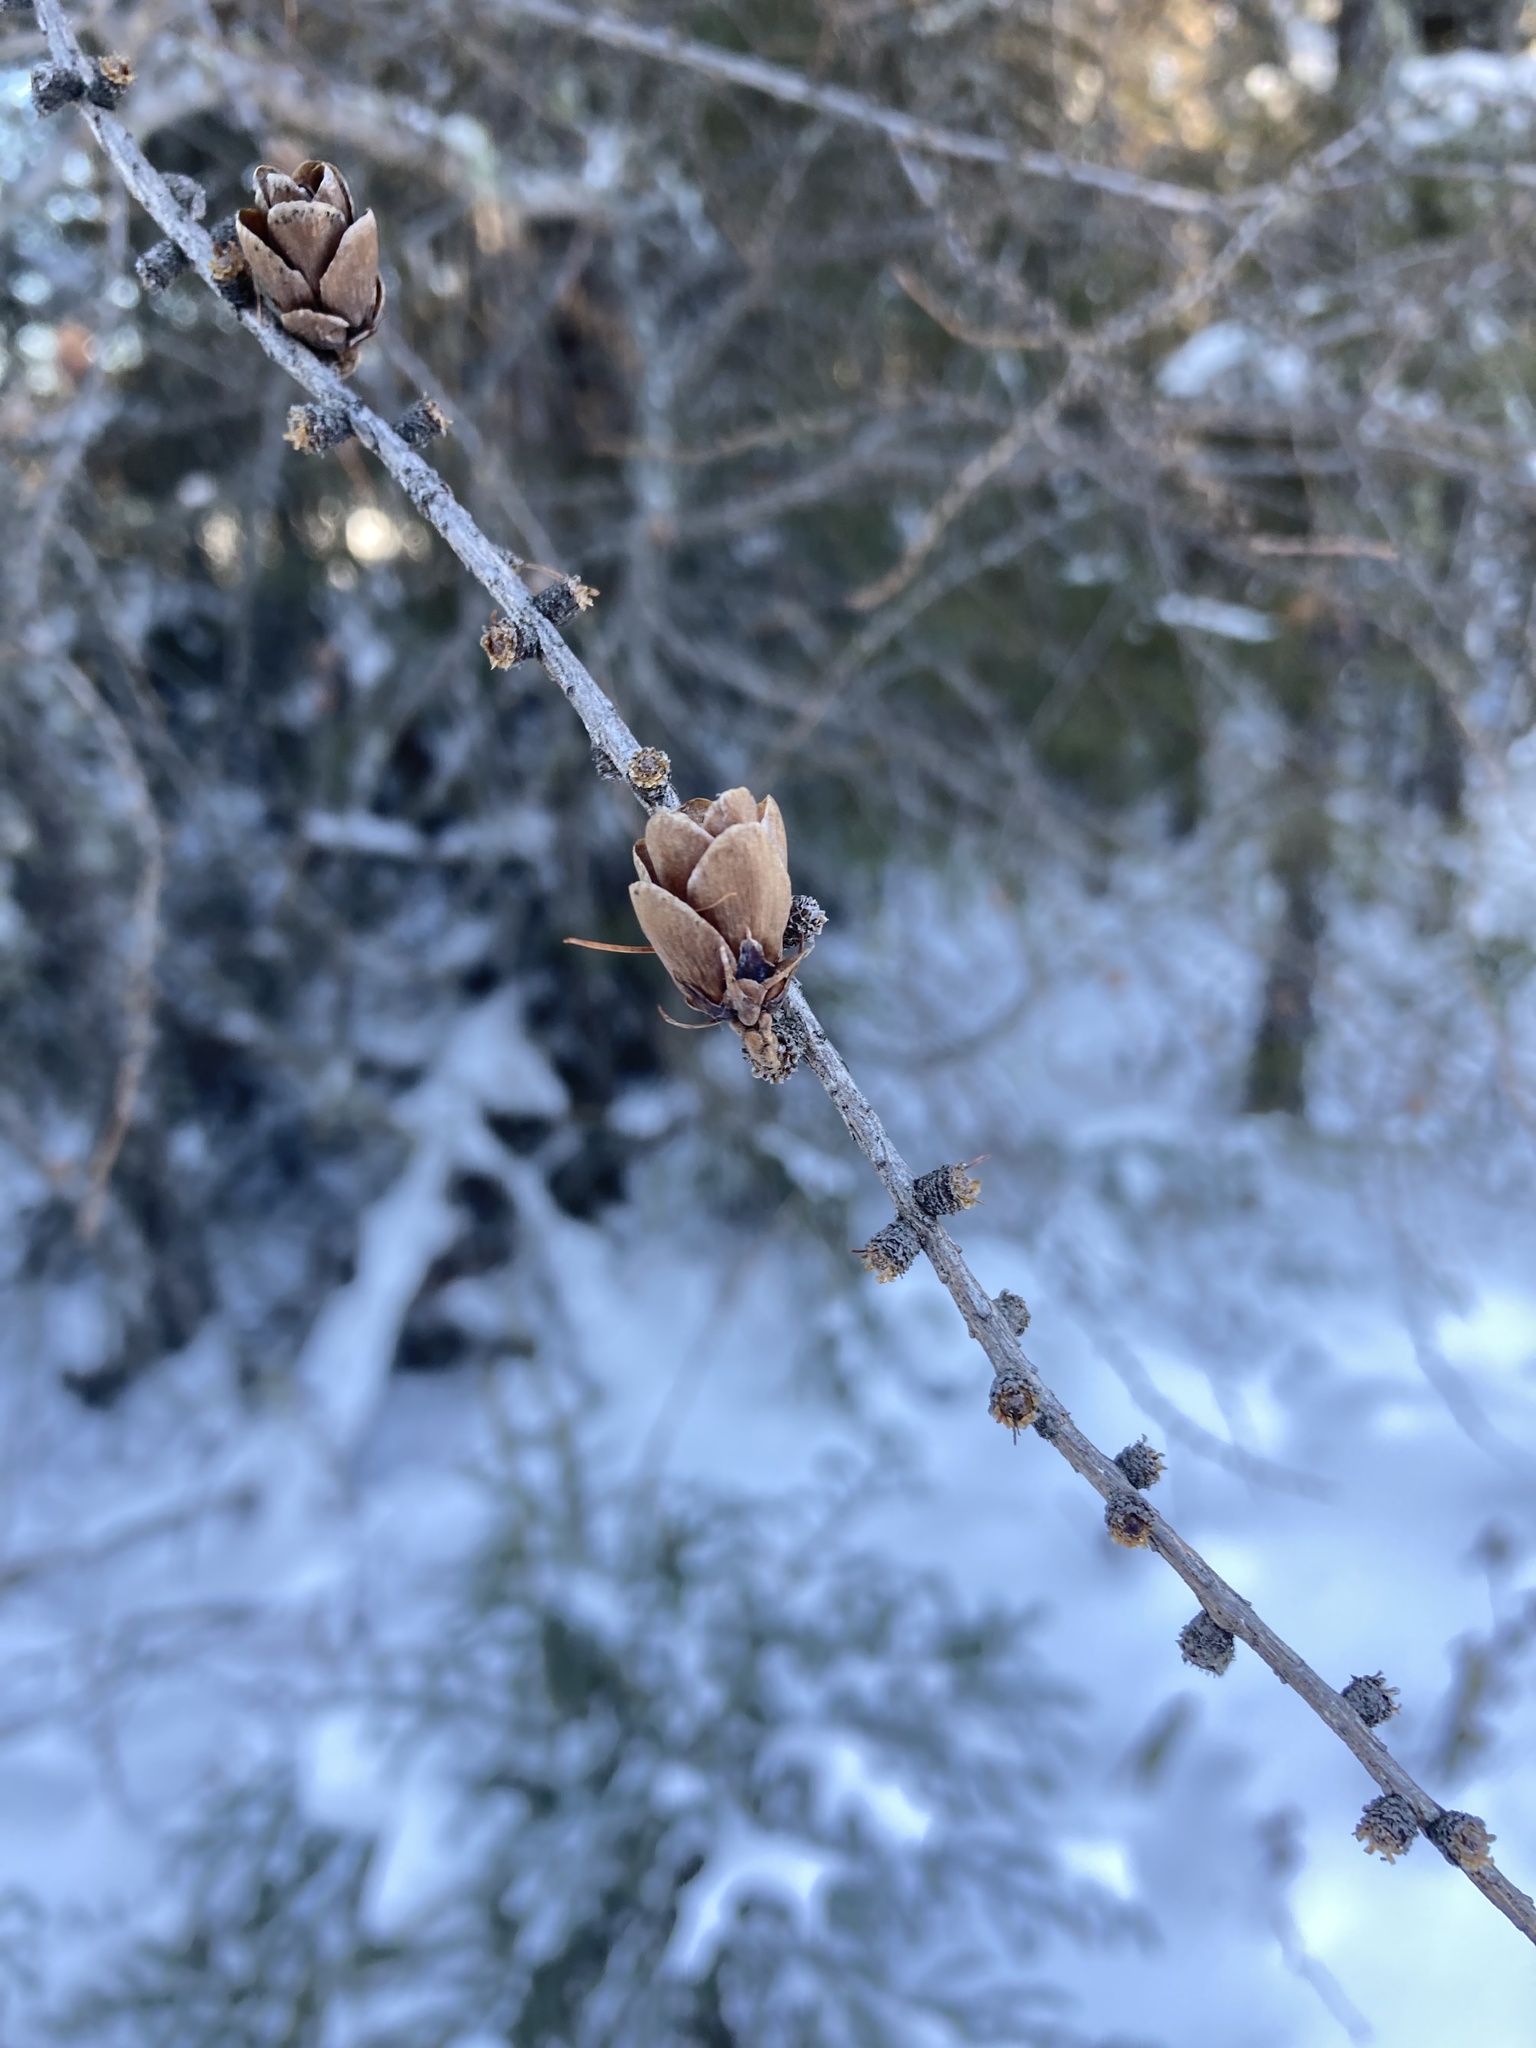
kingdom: Plantae
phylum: Tracheophyta
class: Pinopsida
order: Pinales
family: Pinaceae
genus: Larix
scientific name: Larix laricina
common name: American larch
